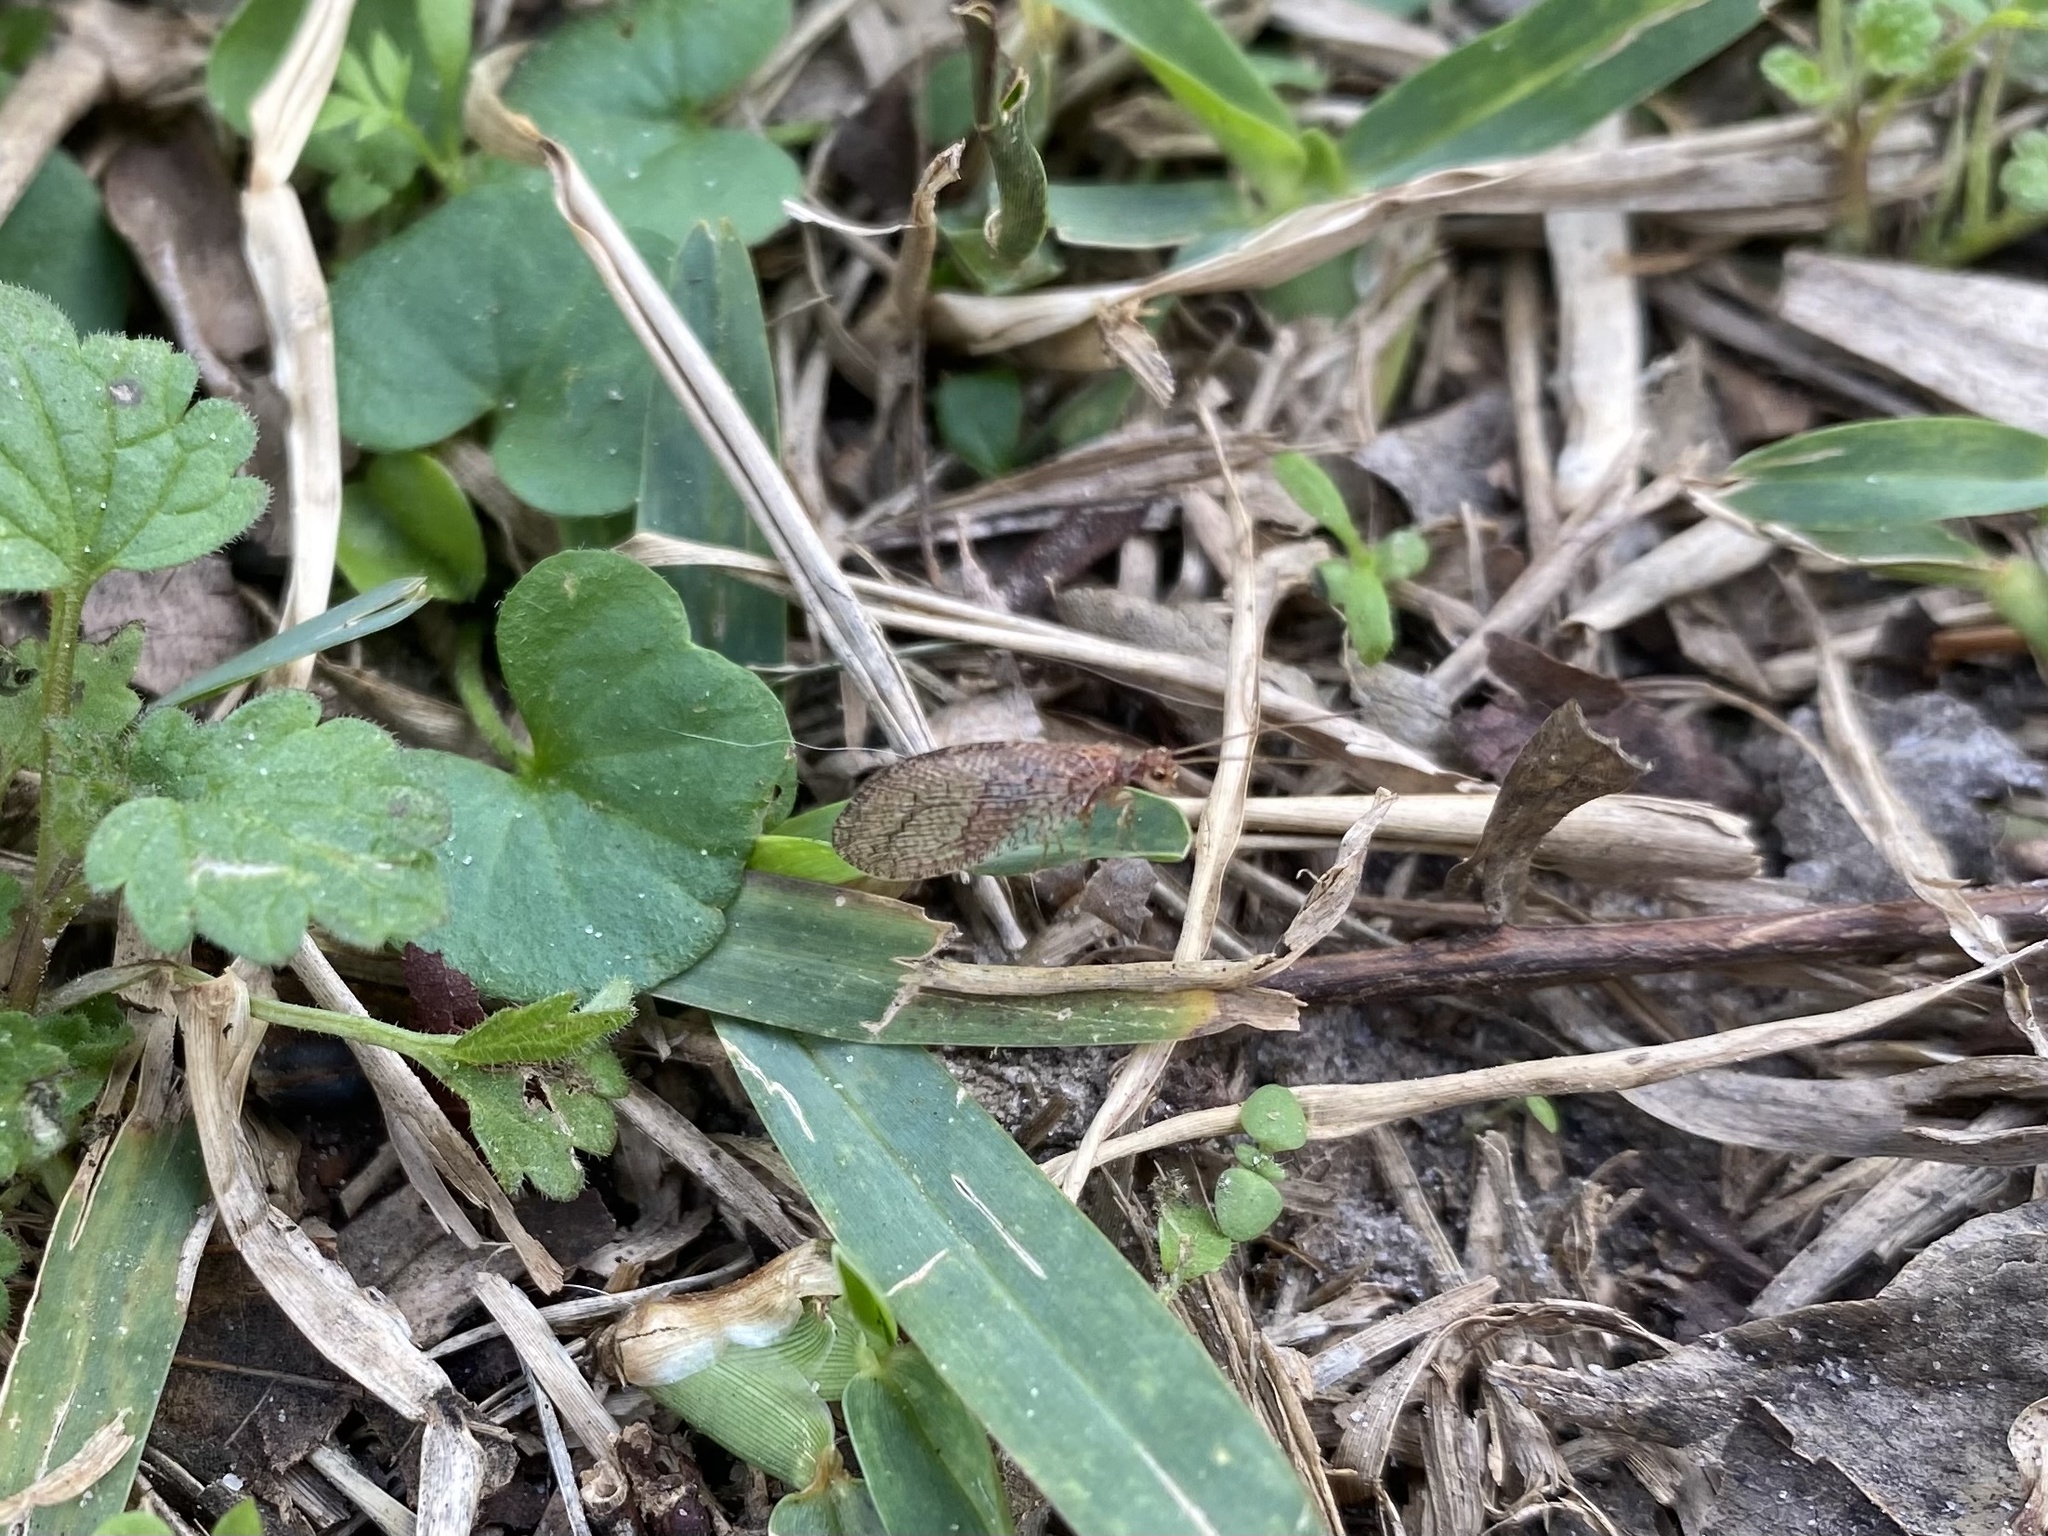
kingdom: Animalia
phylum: Arthropoda
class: Insecta
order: Neuroptera
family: Hemerobiidae
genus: Micromus
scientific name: Micromus posticus
